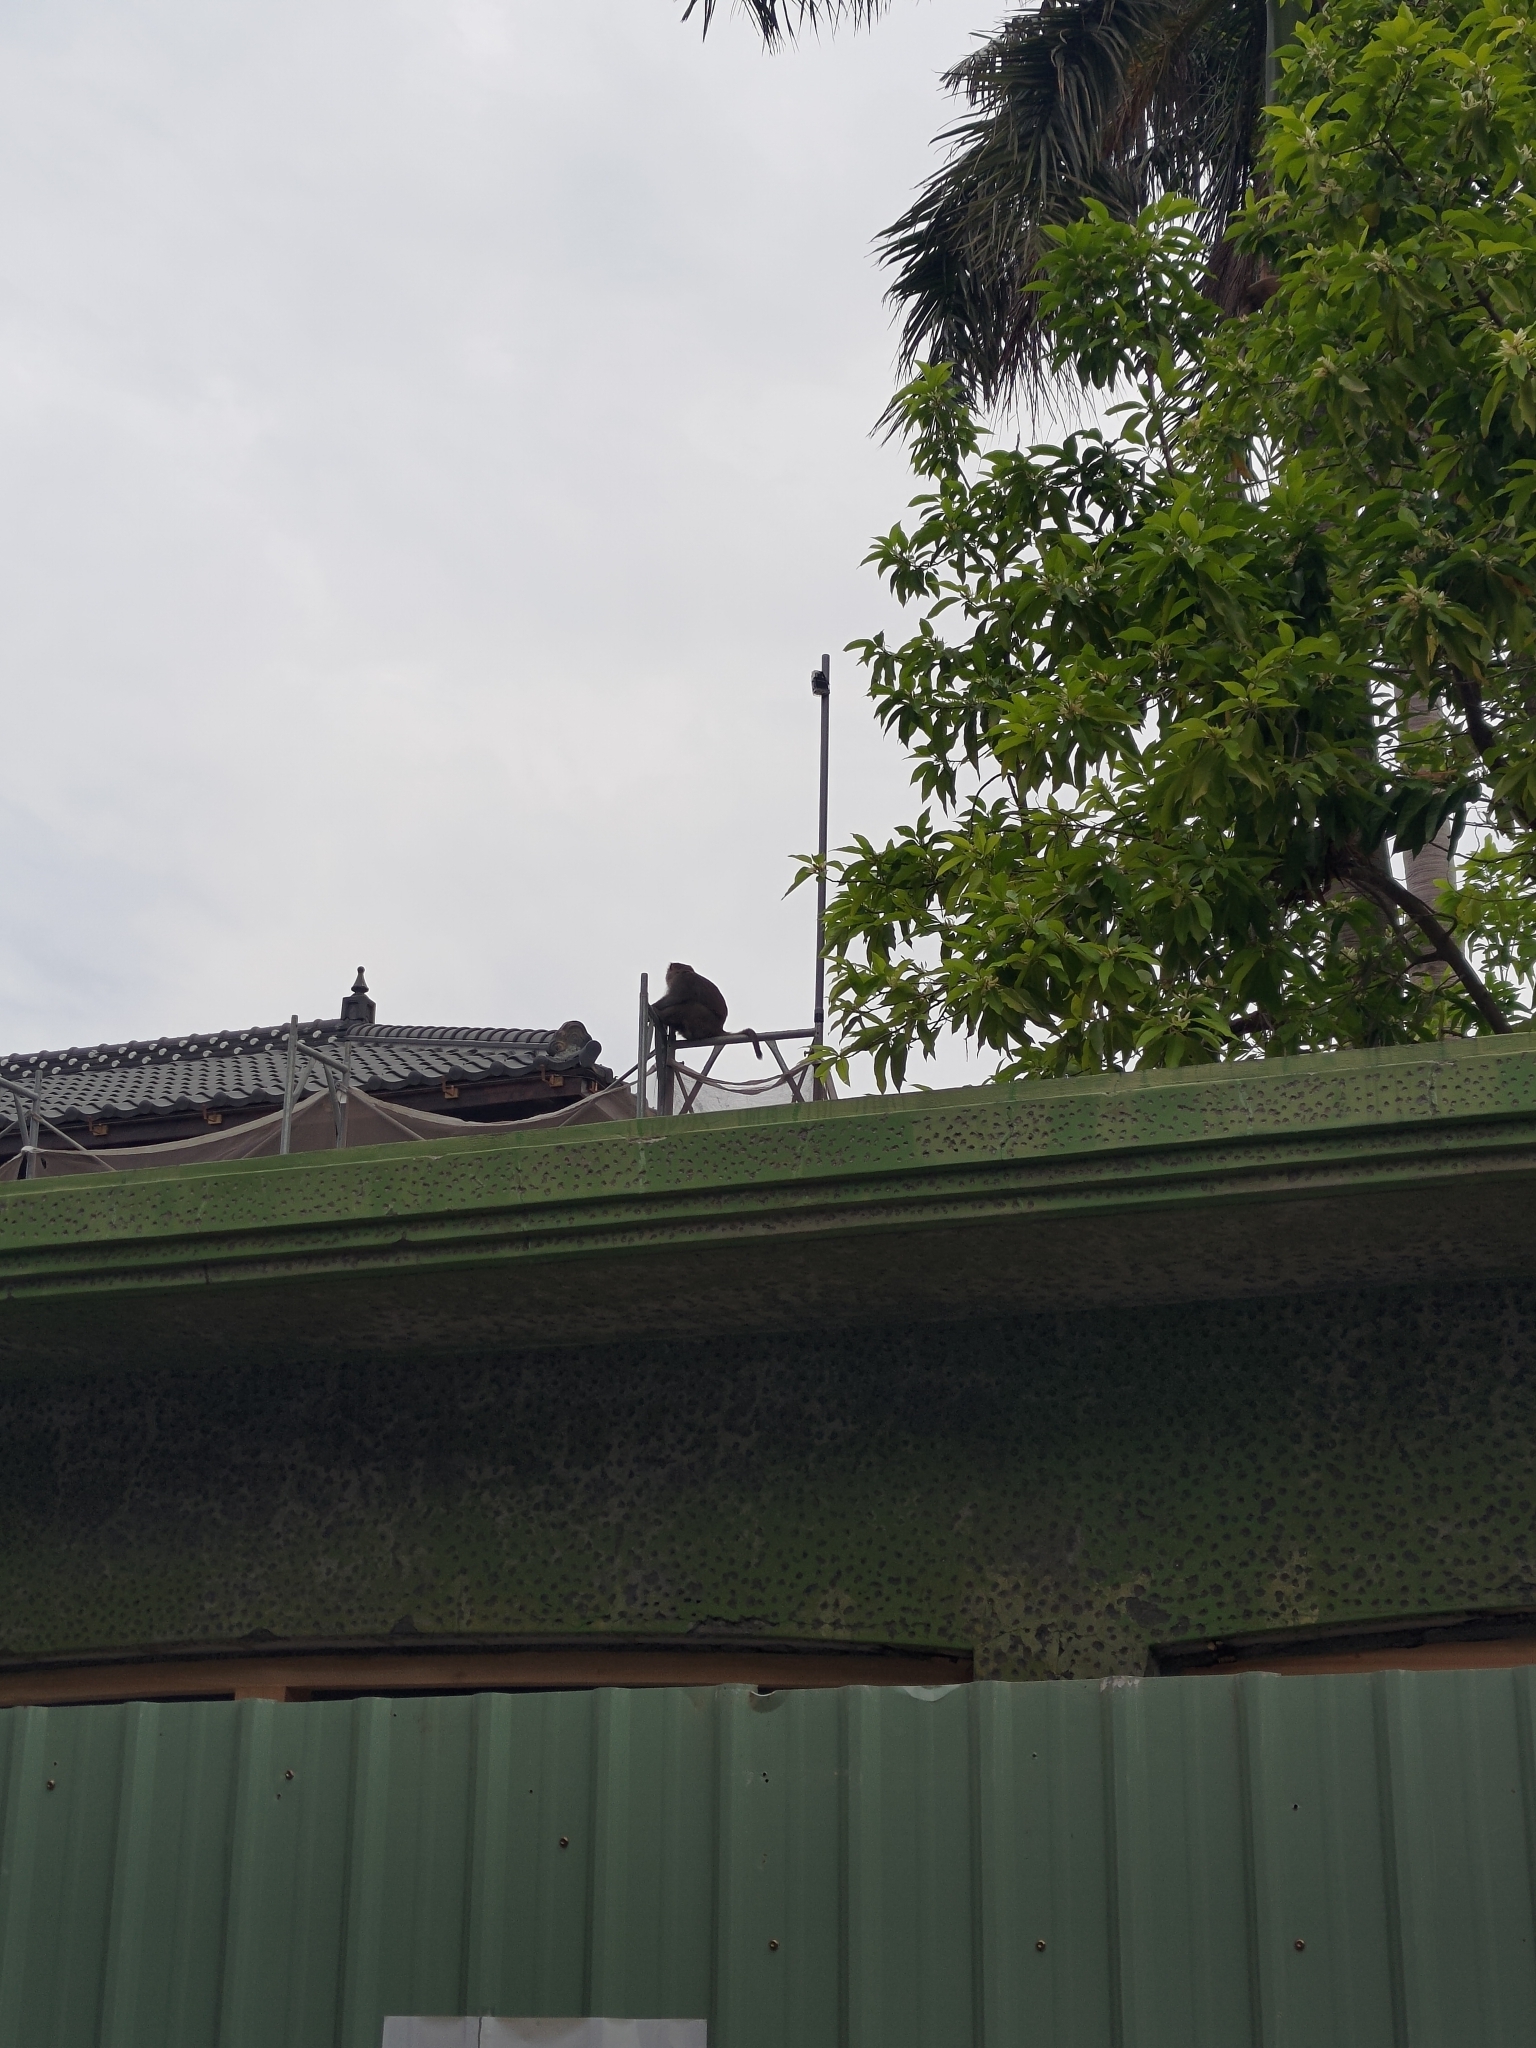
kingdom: Animalia
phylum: Chordata
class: Mammalia
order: Primates
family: Cercopithecidae
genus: Macaca
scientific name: Macaca cyclopis
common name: Formosan rock macaque
